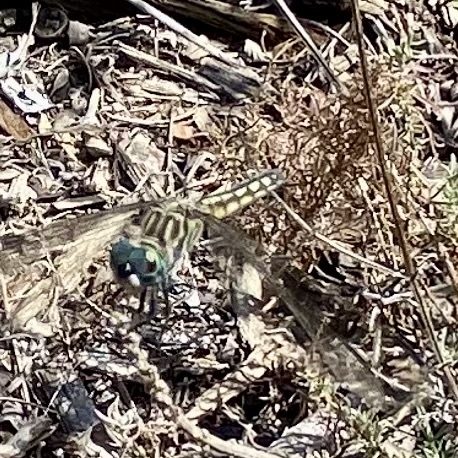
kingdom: Animalia
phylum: Arthropoda
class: Insecta
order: Odonata
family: Libellulidae
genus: Pachydiplax
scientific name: Pachydiplax longipennis
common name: Blue dasher
